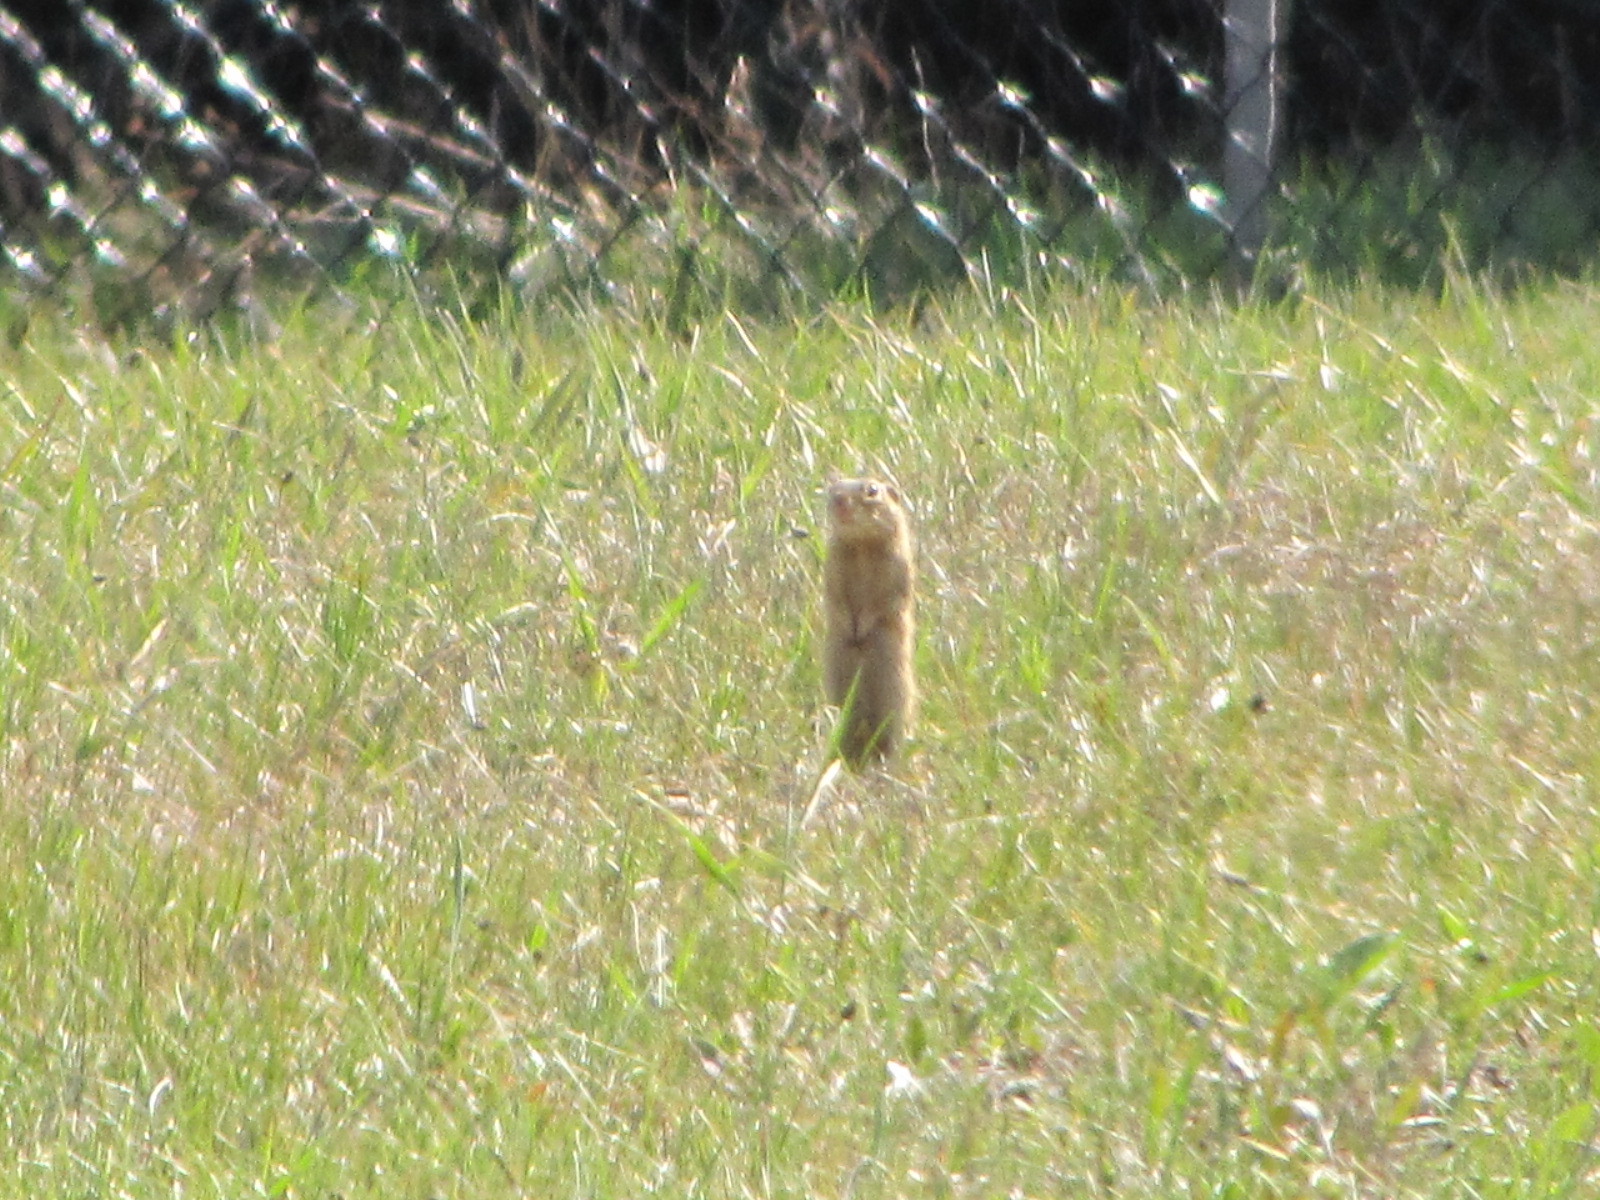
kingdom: Animalia
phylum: Chordata
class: Mammalia
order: Rodentia
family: Sciuridae
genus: Ictidomys
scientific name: Ictidomys tridecemlineatus
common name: Thirteen-lined ground squirrel
